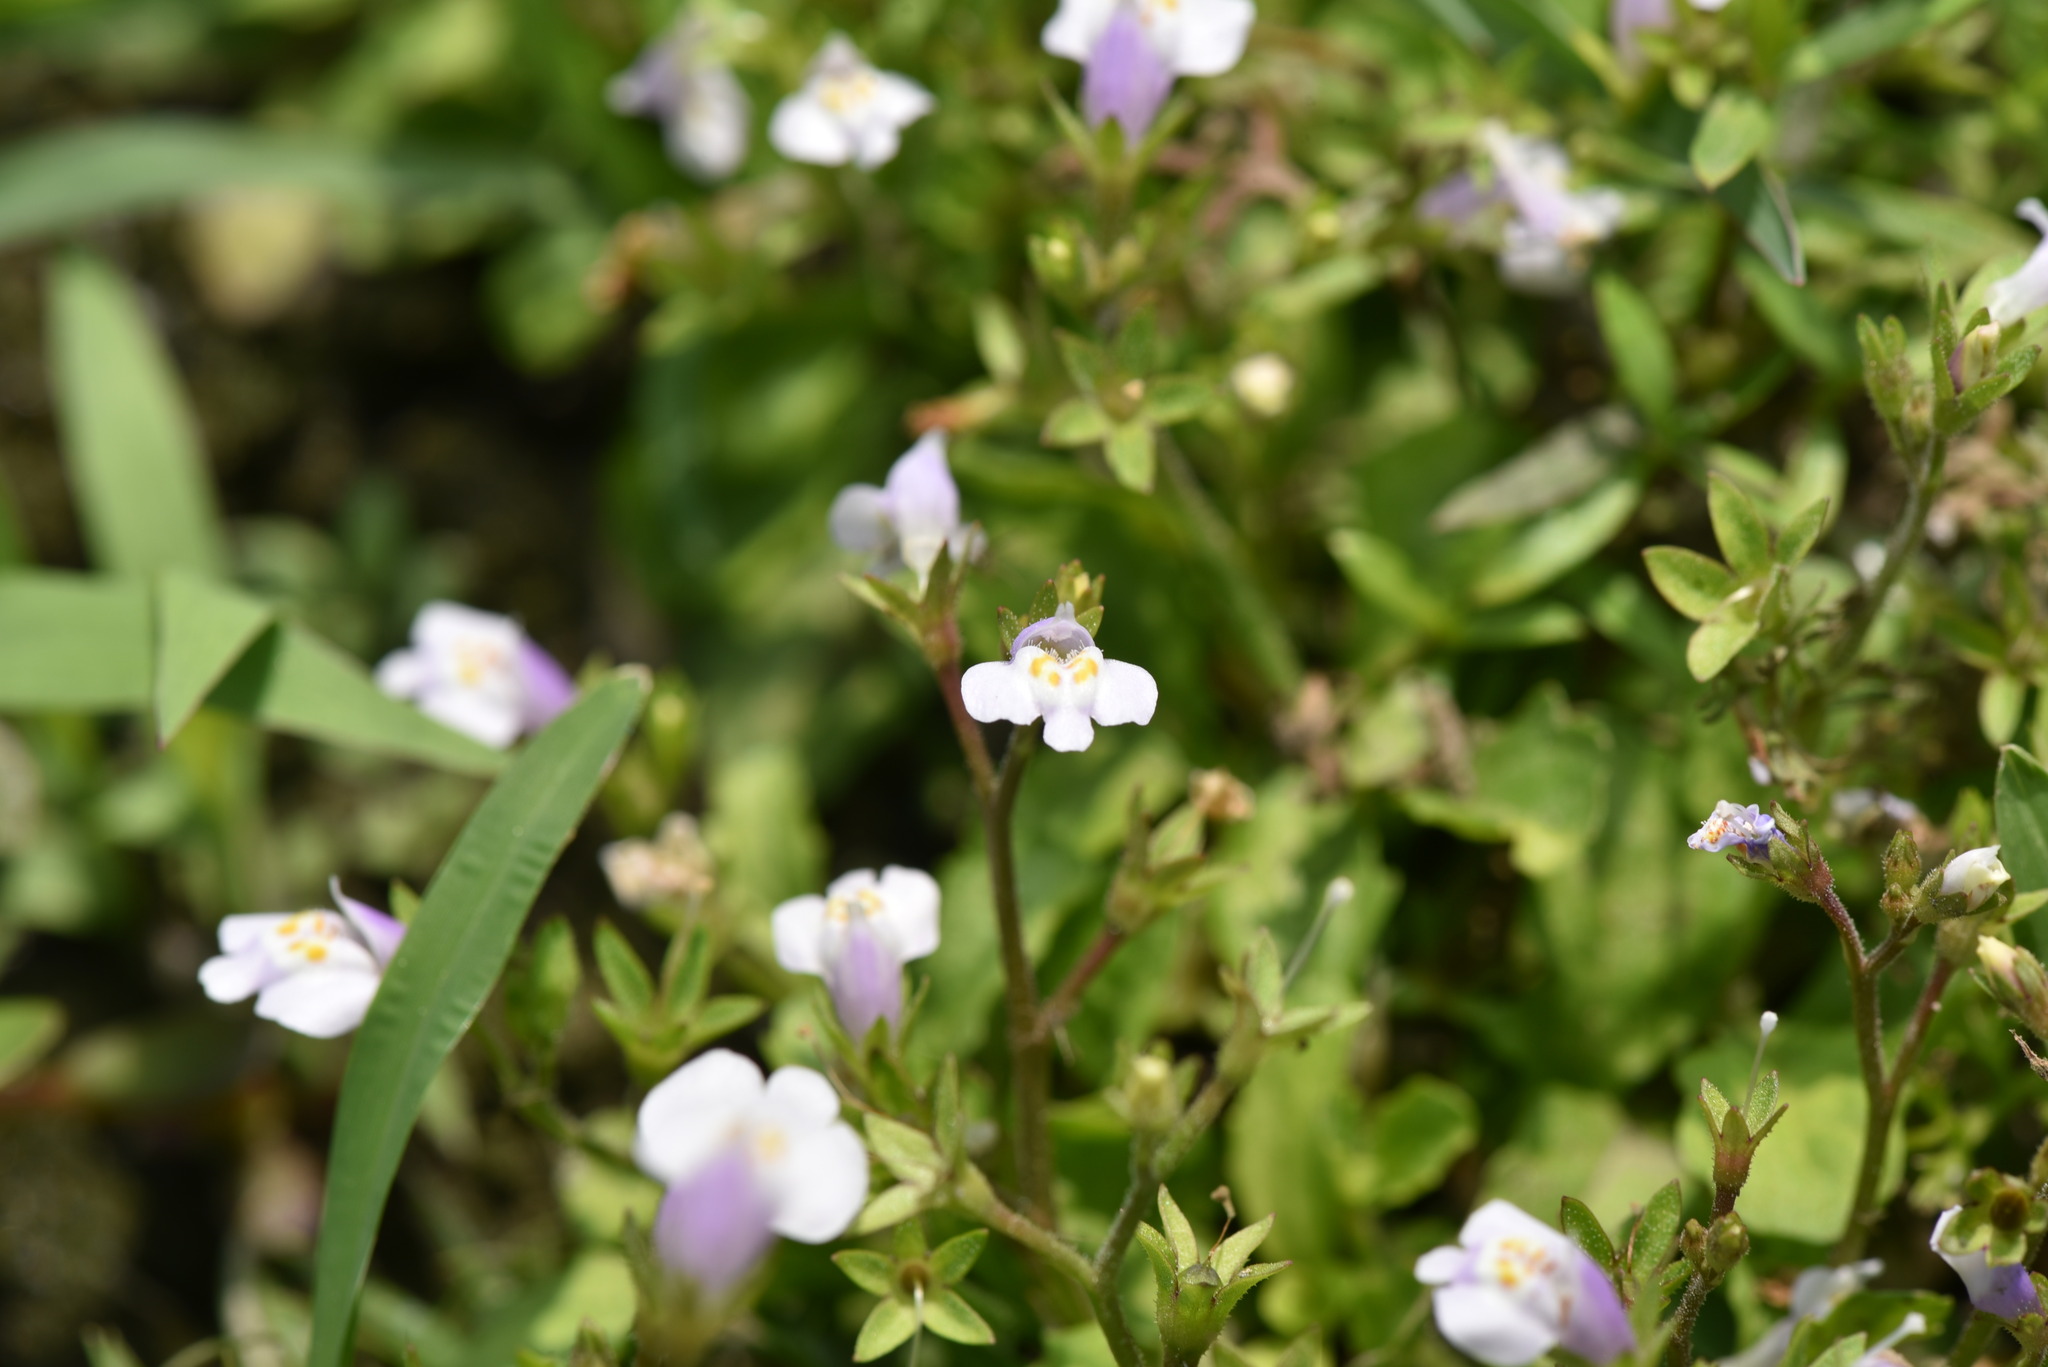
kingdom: Plantae
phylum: Tracheophyta
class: Magnoliopsida
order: Lamiales
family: Mazaceae
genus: Mazus
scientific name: Mazus pumilus
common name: Japanese mazus
